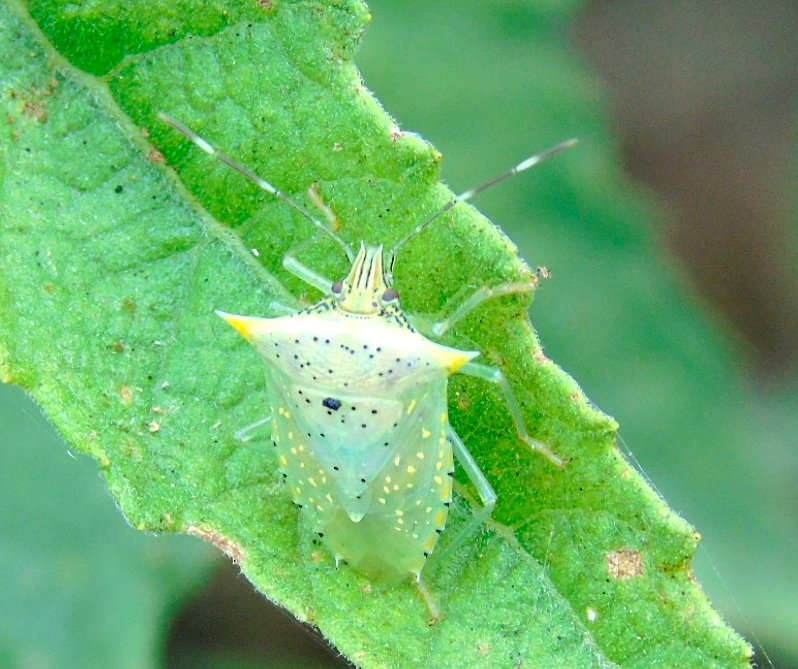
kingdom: Animalia
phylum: Arthropoda
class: Insecta
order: Hemiptera
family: Pentatomidae
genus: Arvelius
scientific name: Arvelius albopunctatus
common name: Tomato stink bug
